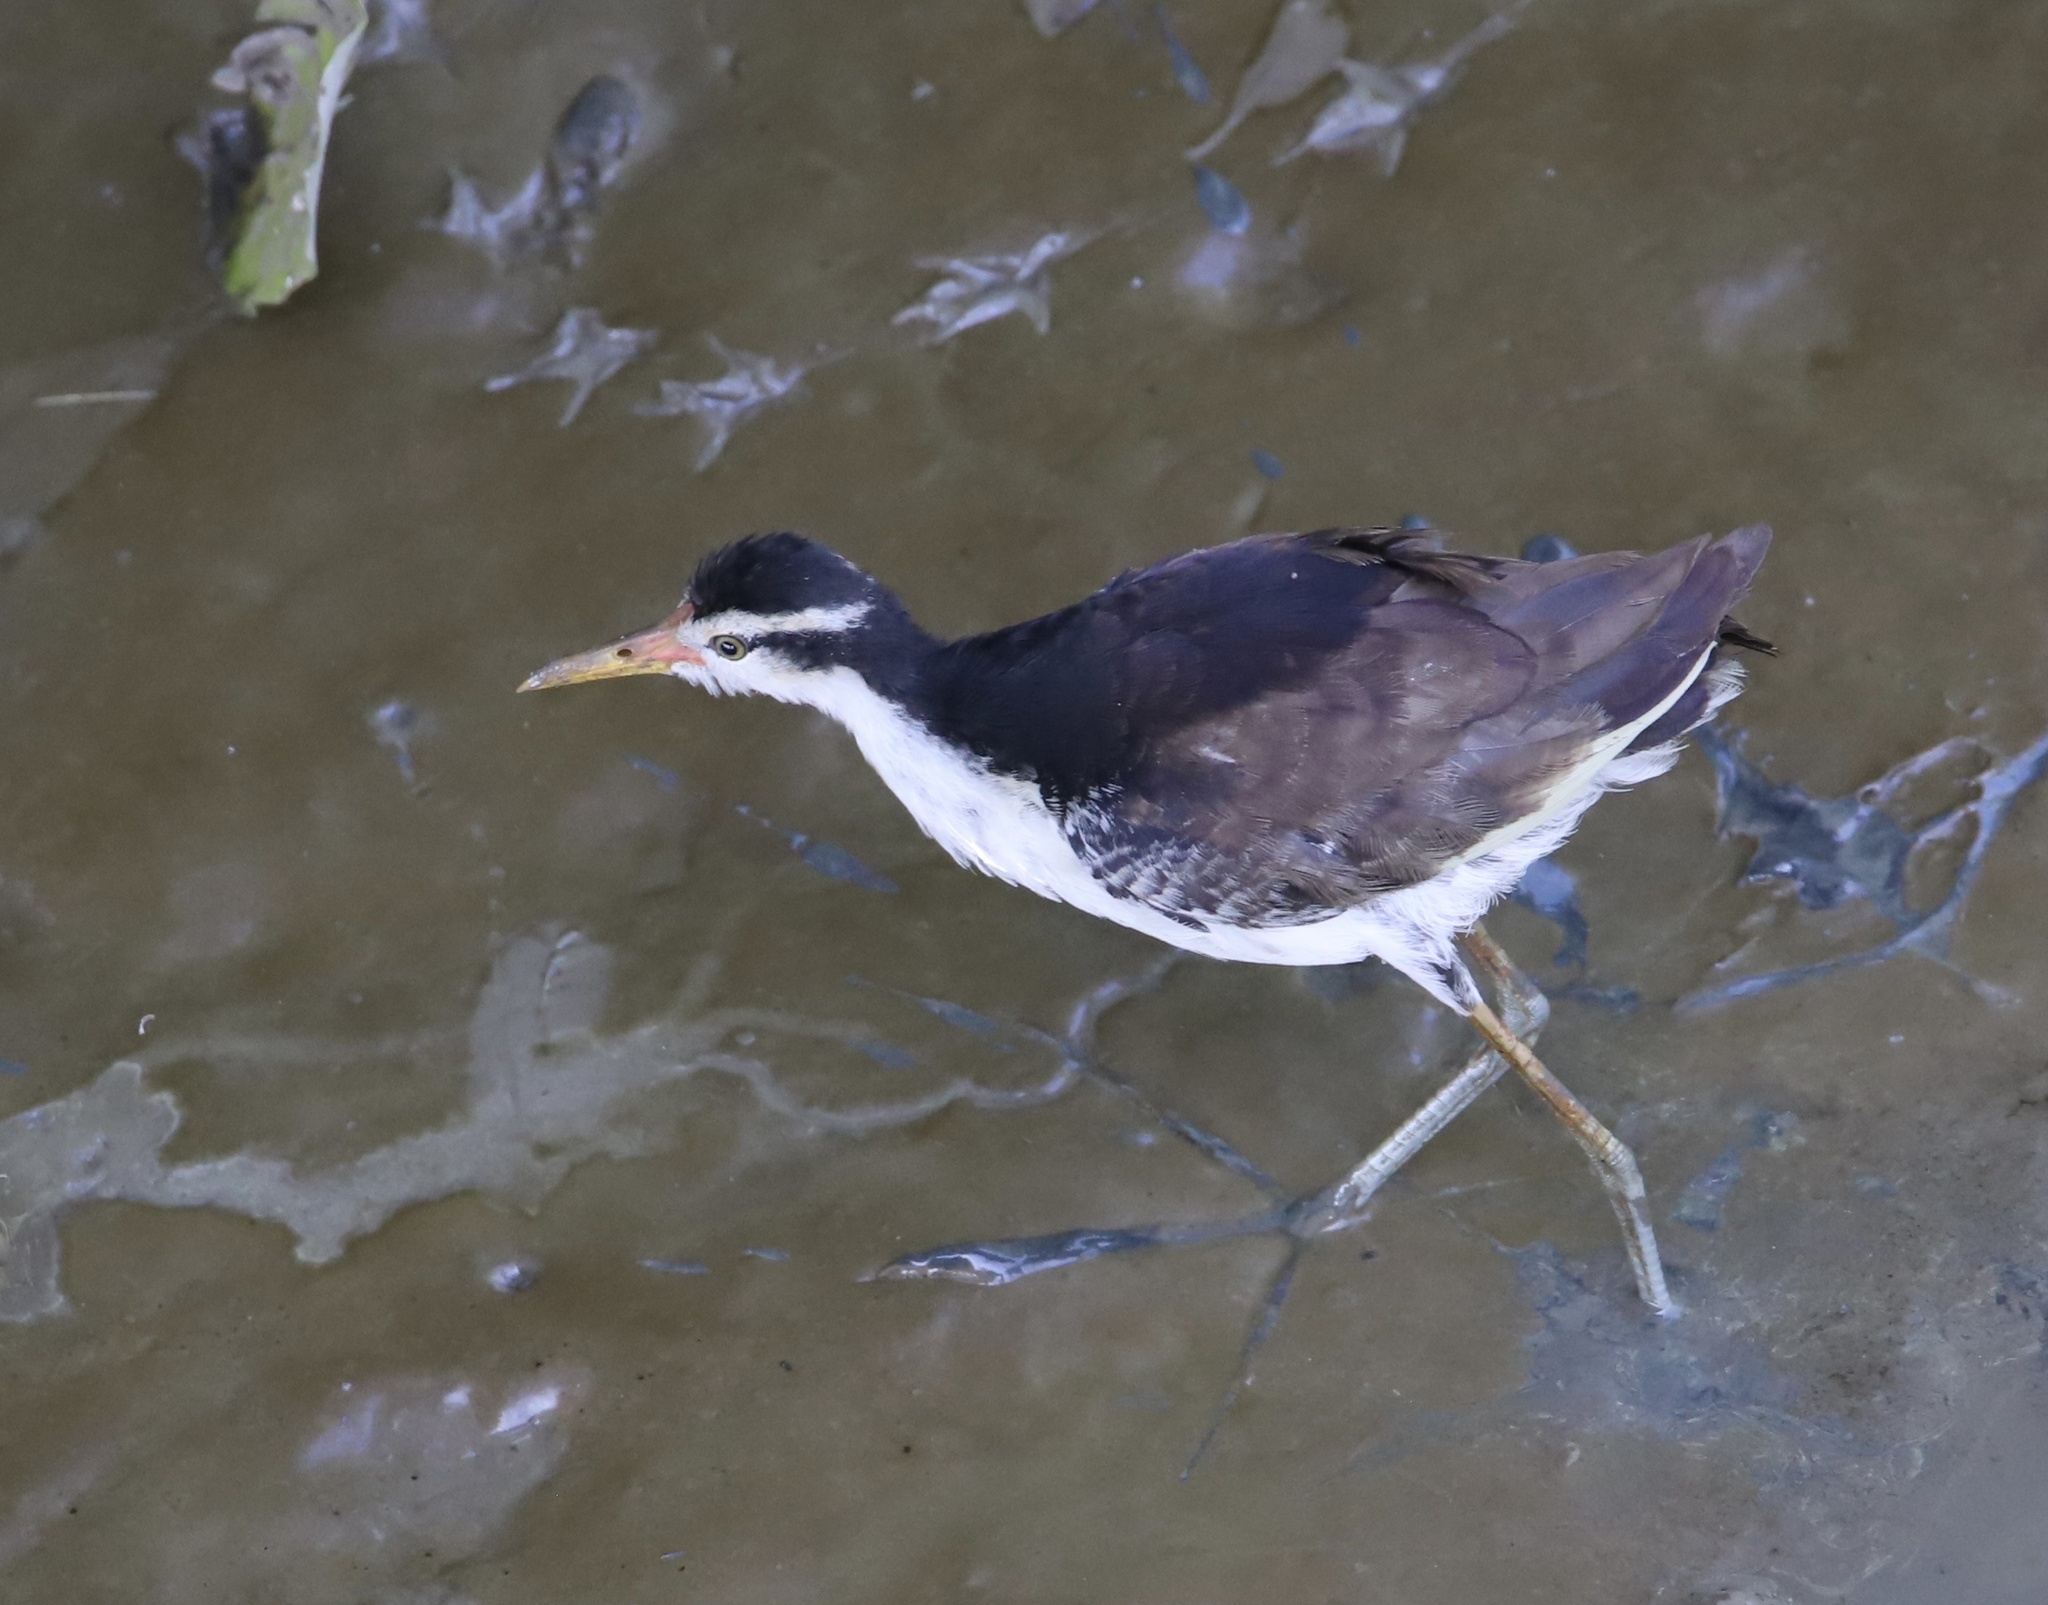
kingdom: Animalia
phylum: Chordata
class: Aves
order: Charadriiformes
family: Jacanidae
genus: Jacana
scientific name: Jacana jacana
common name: Wattled jacana
